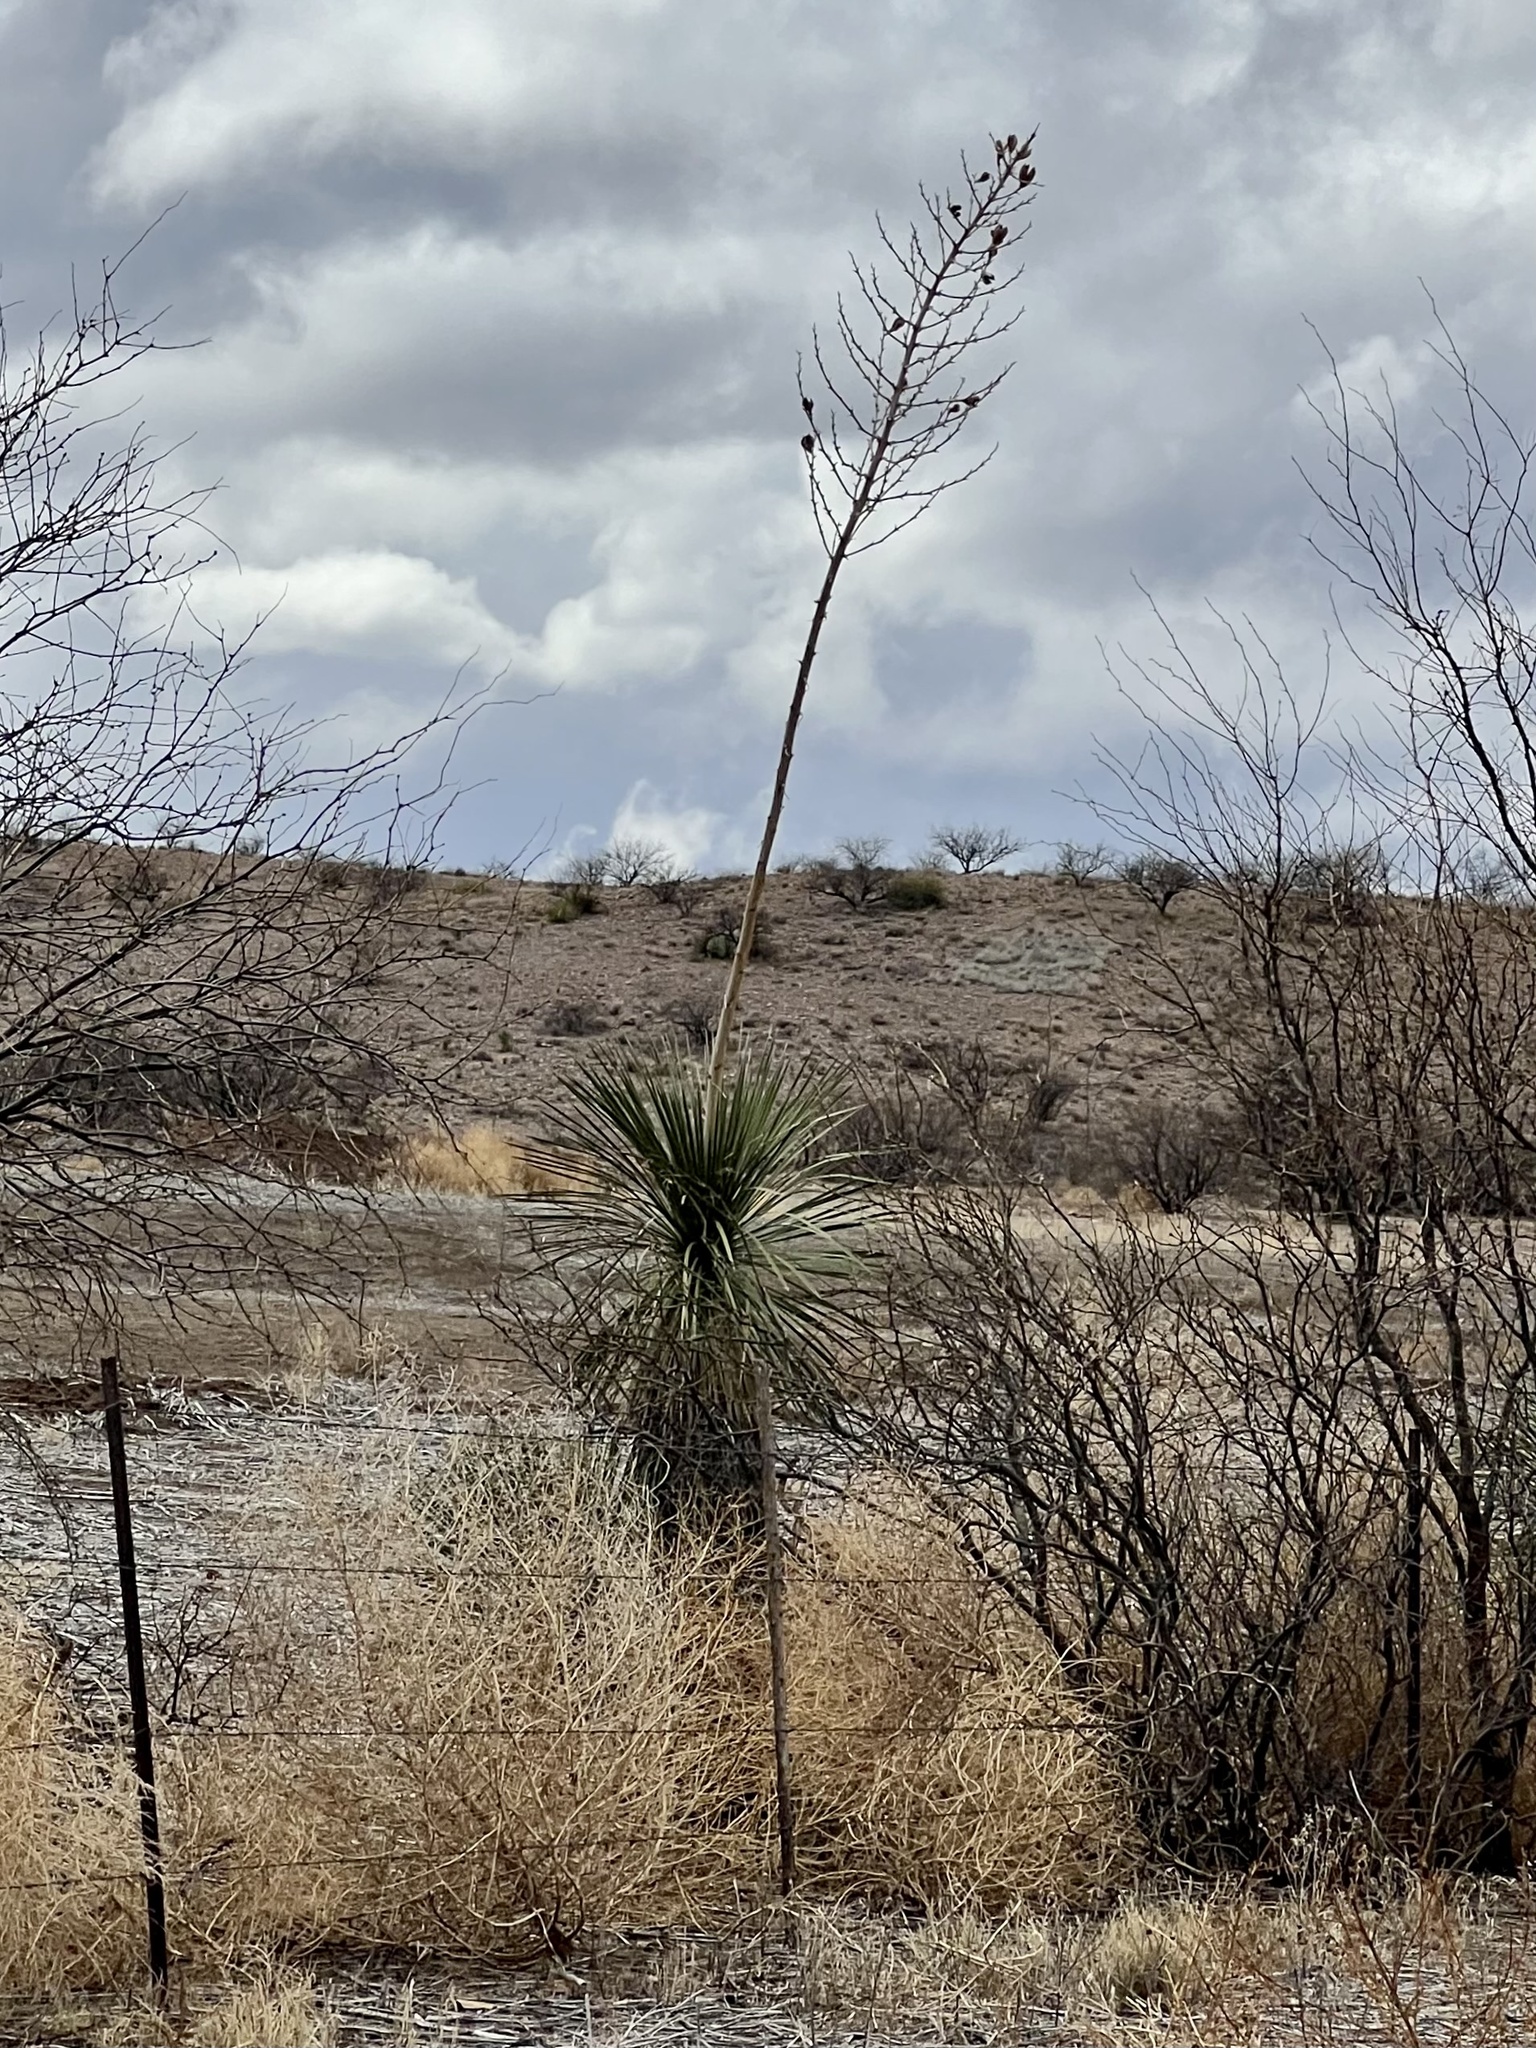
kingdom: Plantae
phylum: Tracheophyta
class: Liliopsida
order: Asparagales
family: Asparagaceae
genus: Yucca
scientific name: Yucca elata
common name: Palmella
